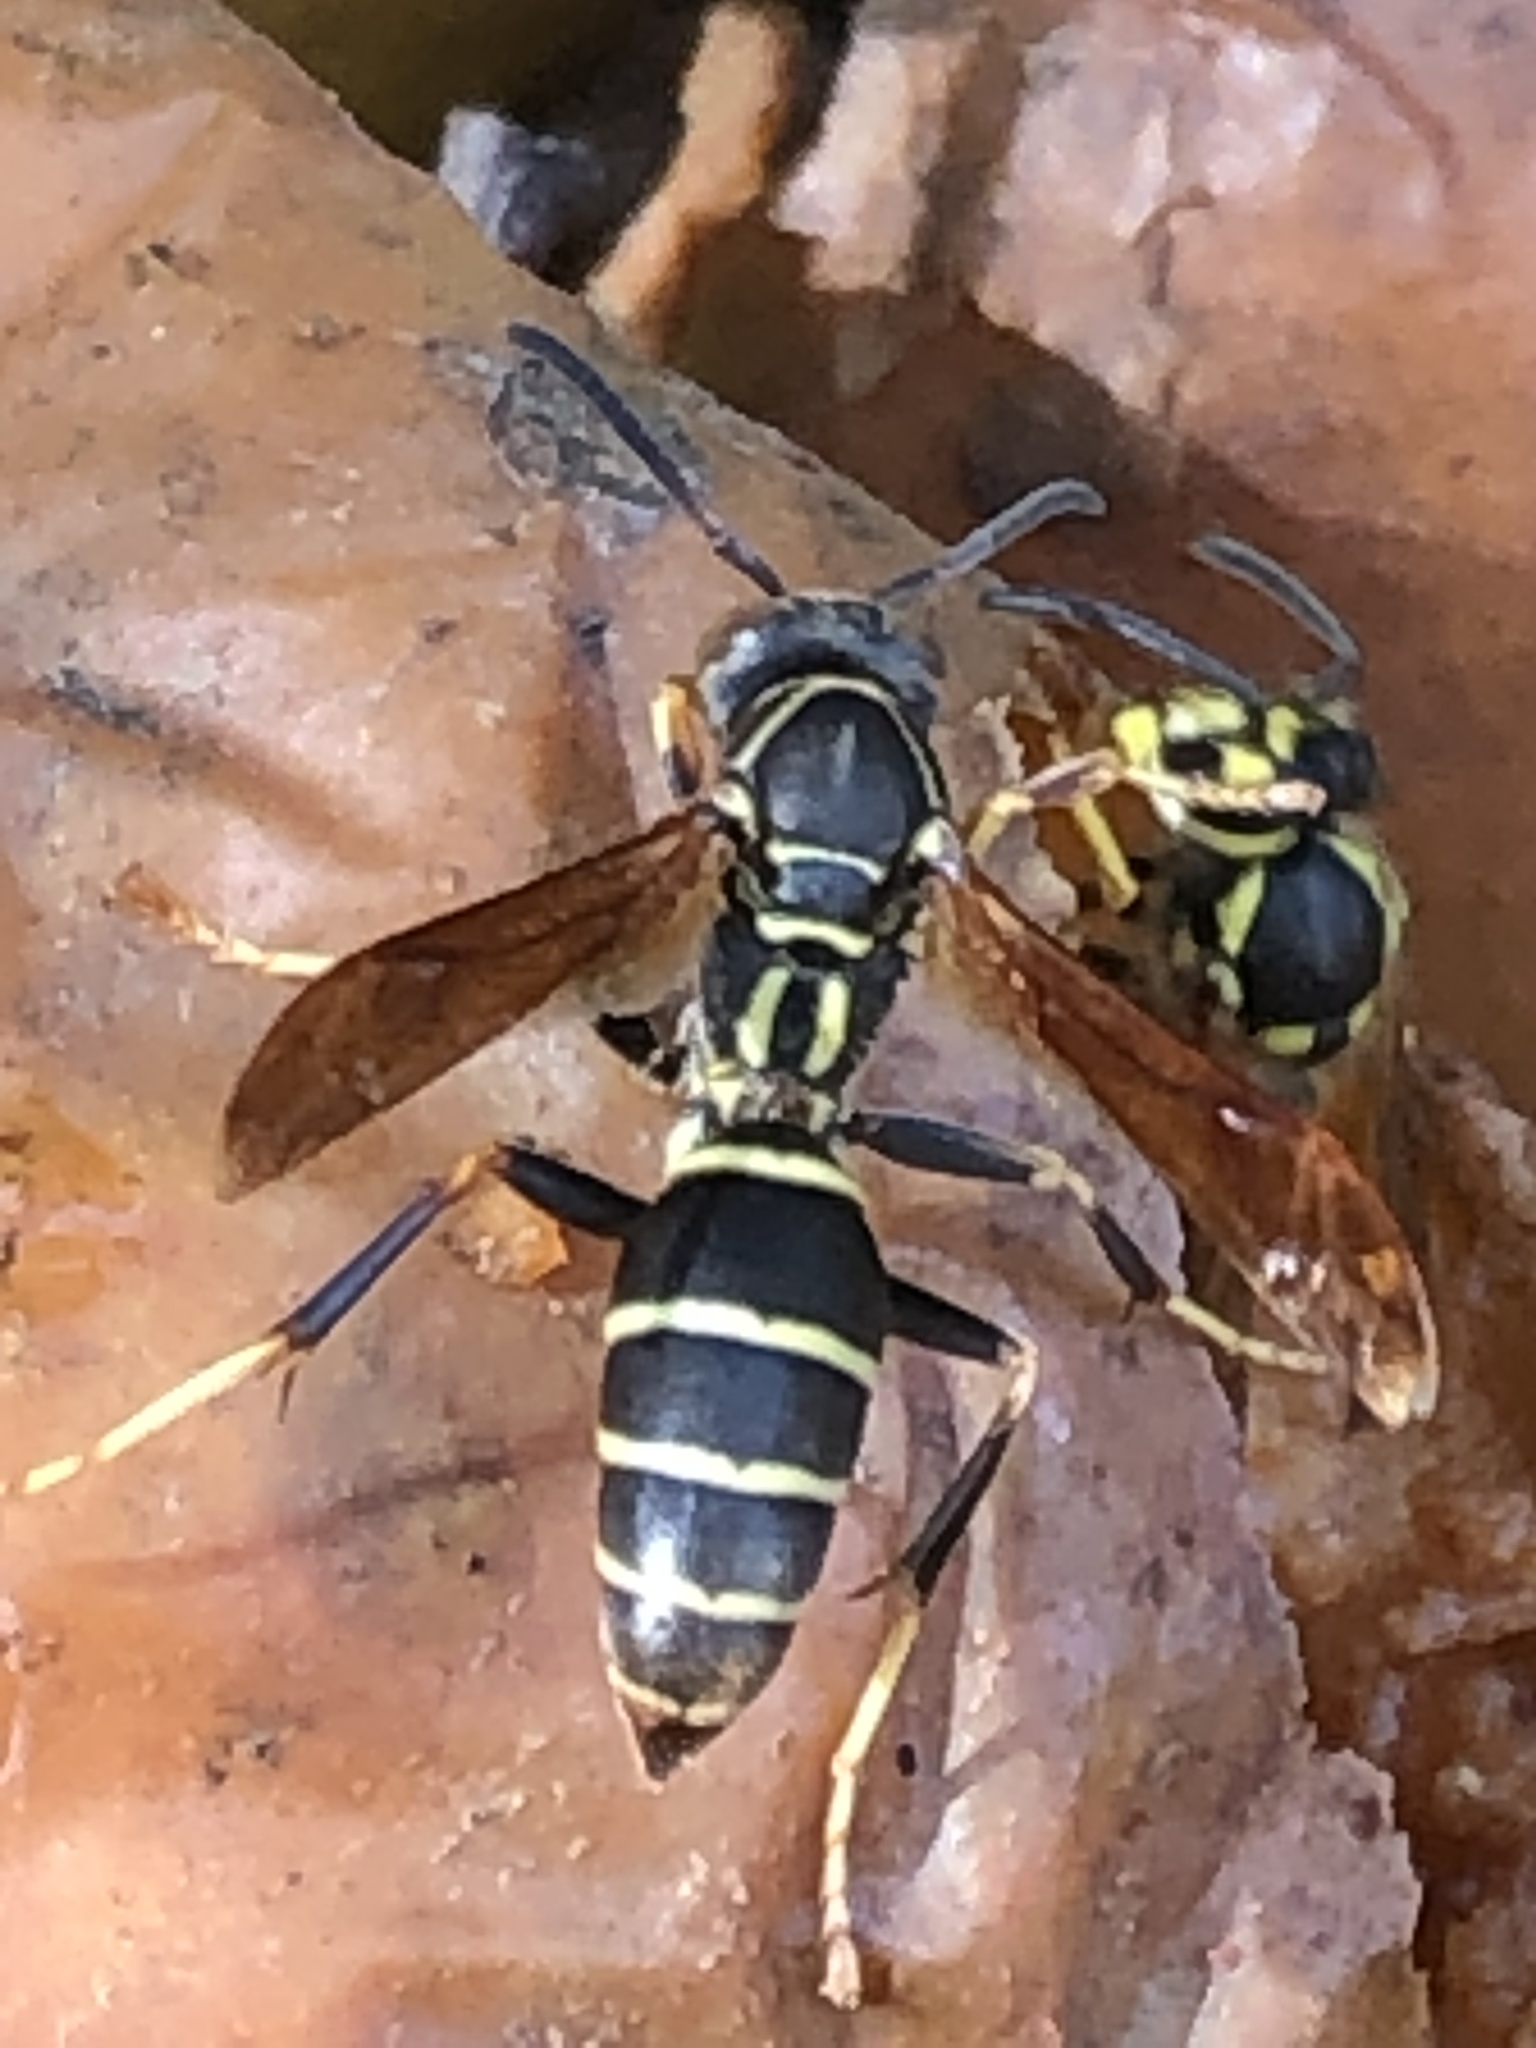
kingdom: Animalia
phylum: Arthropoda
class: Insecta
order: Hymenoptera
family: Eumenidae
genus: Polistes
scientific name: Polistes fuscatus
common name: Dark paper wasp
